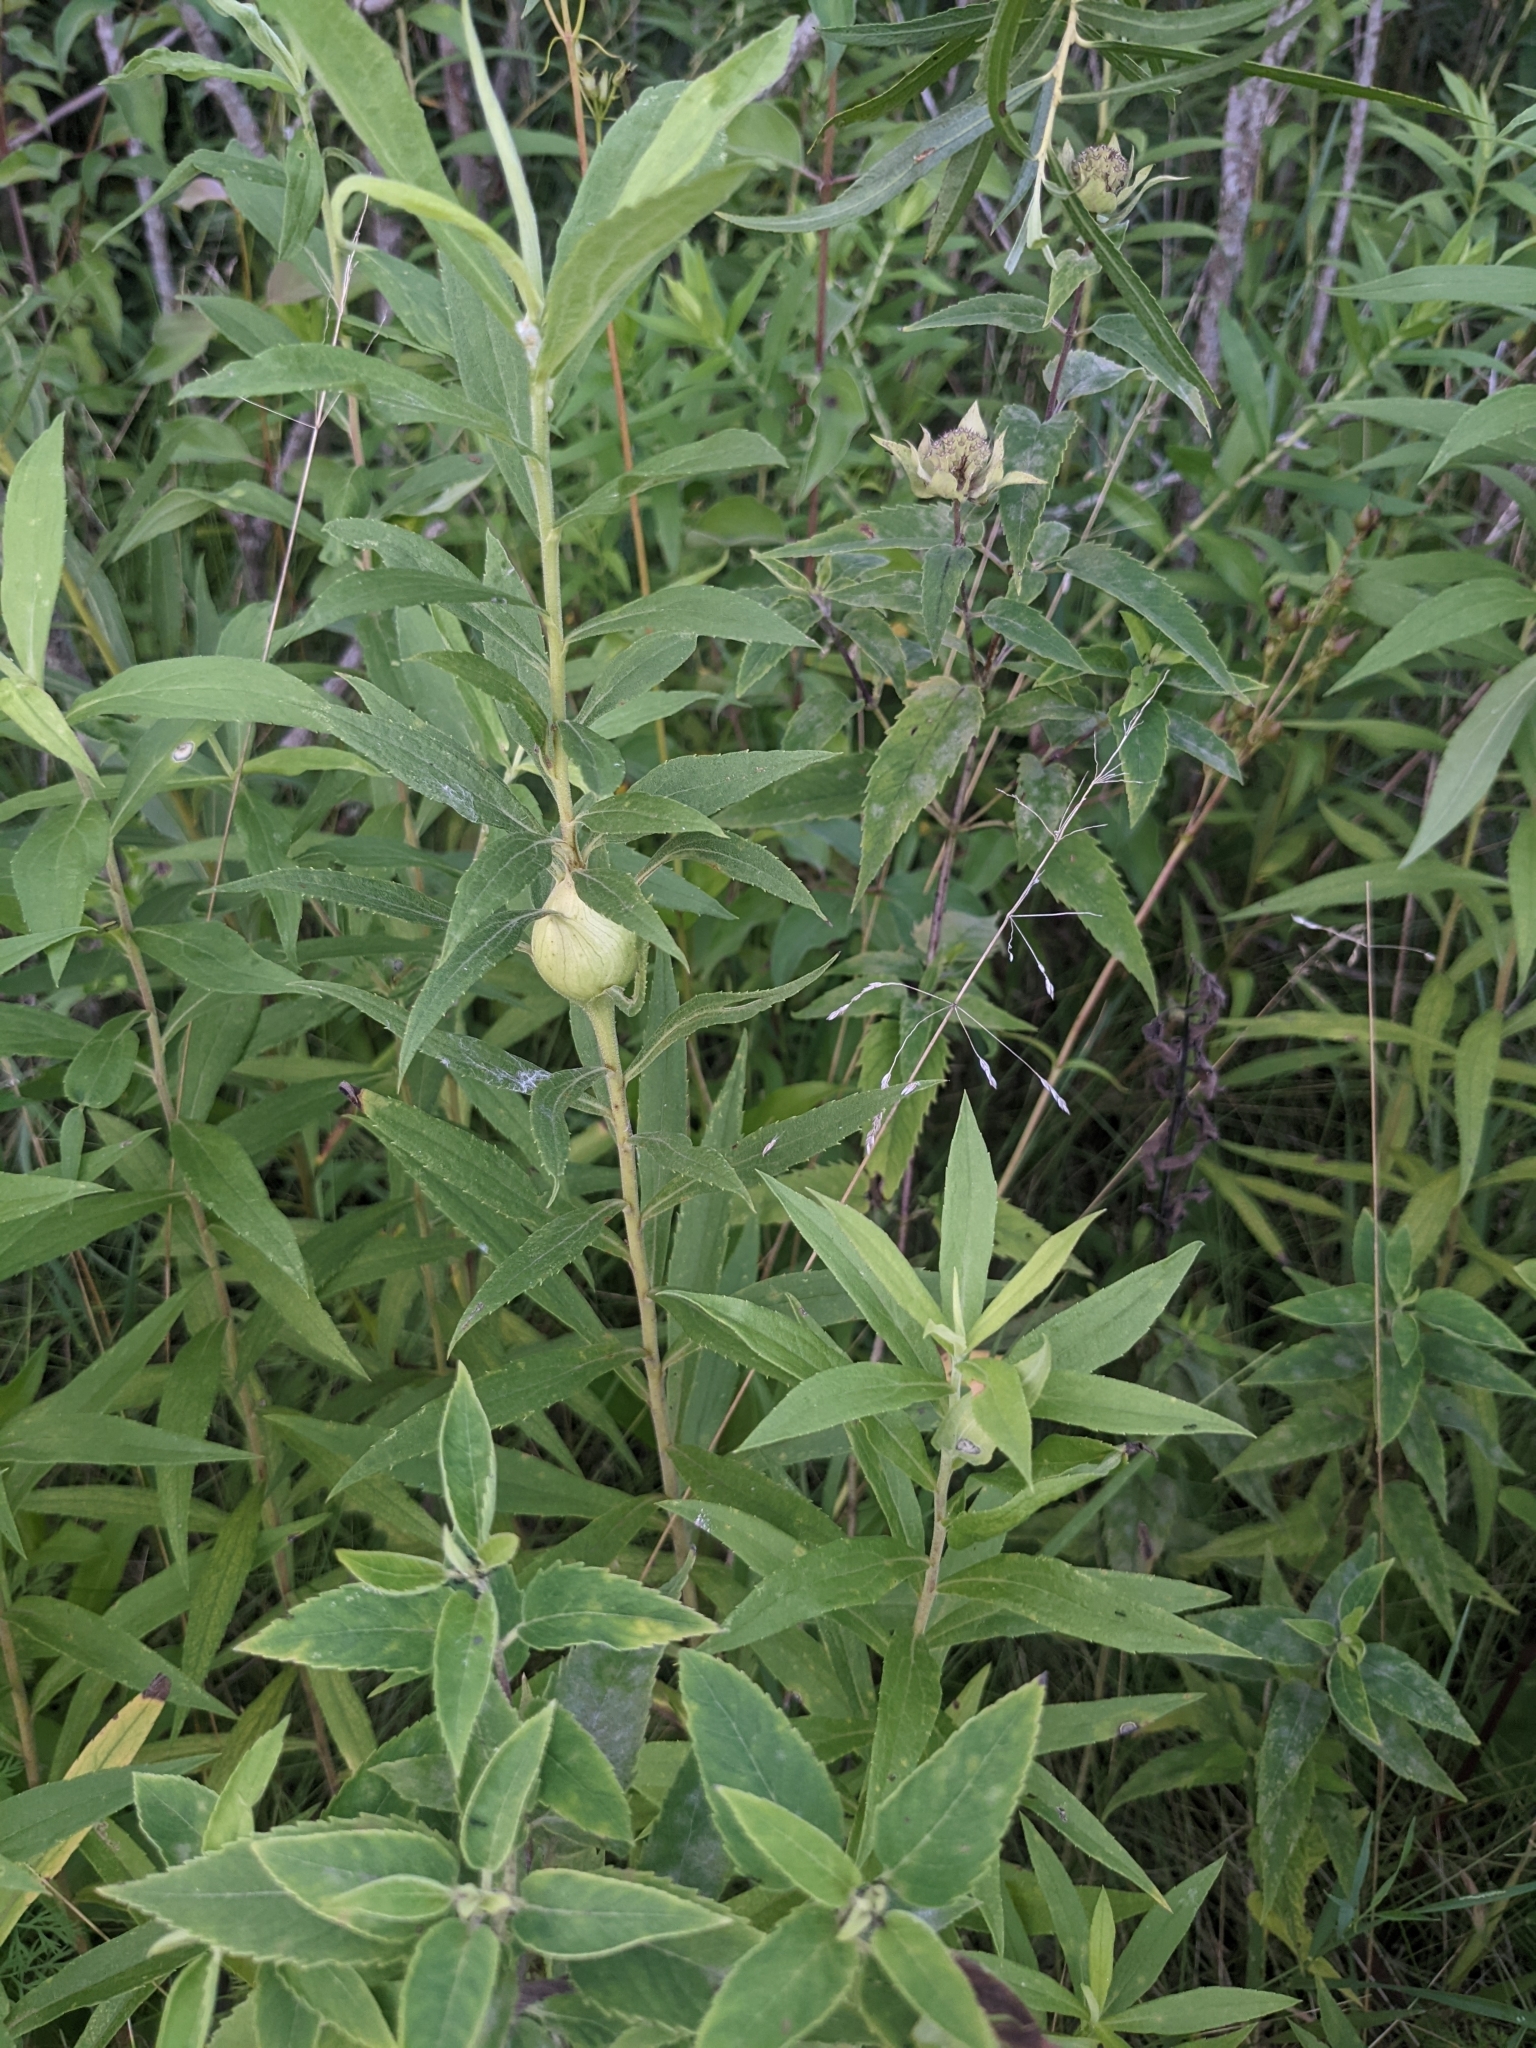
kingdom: Animalia
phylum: Arthropoda
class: Insecta
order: Diptera
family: Tephritidae
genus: Eurosta
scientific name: Eurosta solidaginis
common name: Goldenrod gall fly
